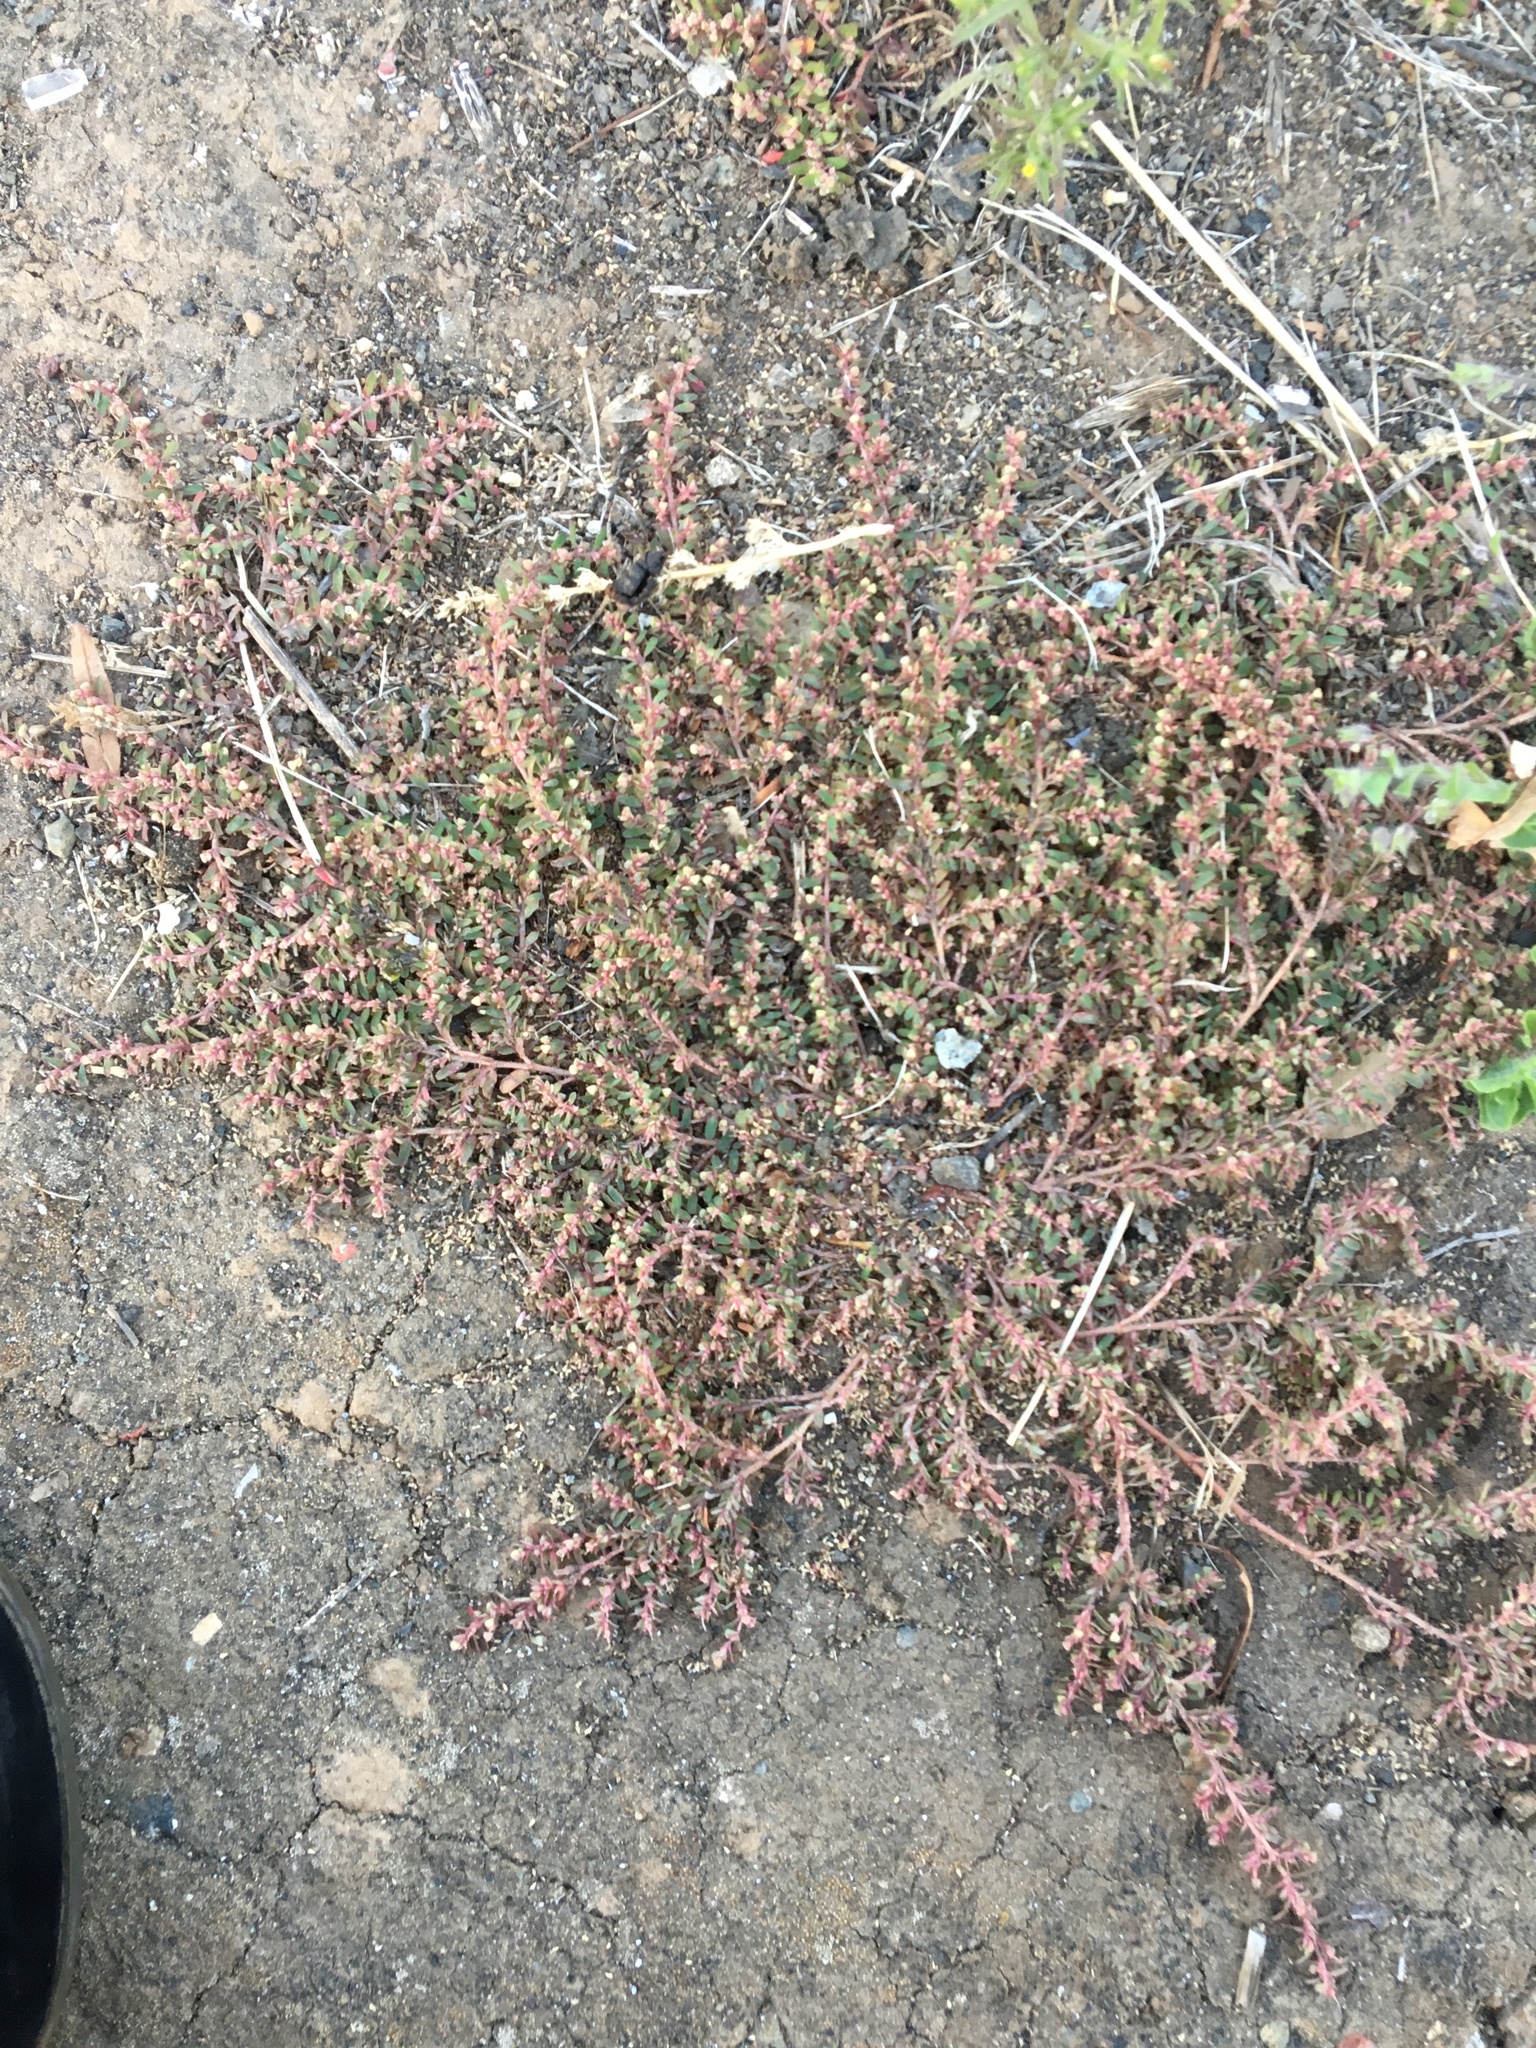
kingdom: Plantae
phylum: Tracheophyta
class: Magnoliopsida
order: Malpighiales
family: Euphorbiaceae
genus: Euphorbia
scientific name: Euphorbia maculata
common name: Spotted spurge
